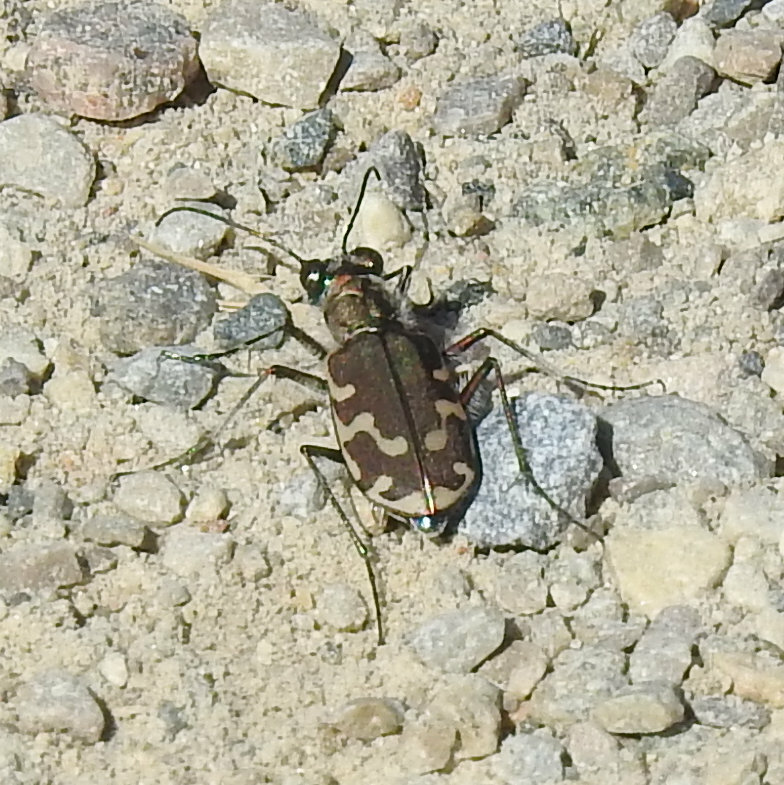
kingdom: Animalia
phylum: Arthropoda
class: Insecta
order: Coleoptera
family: Carabidae
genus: Cicindela
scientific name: Cicindela repanda
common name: Bronzed tiger beetle
